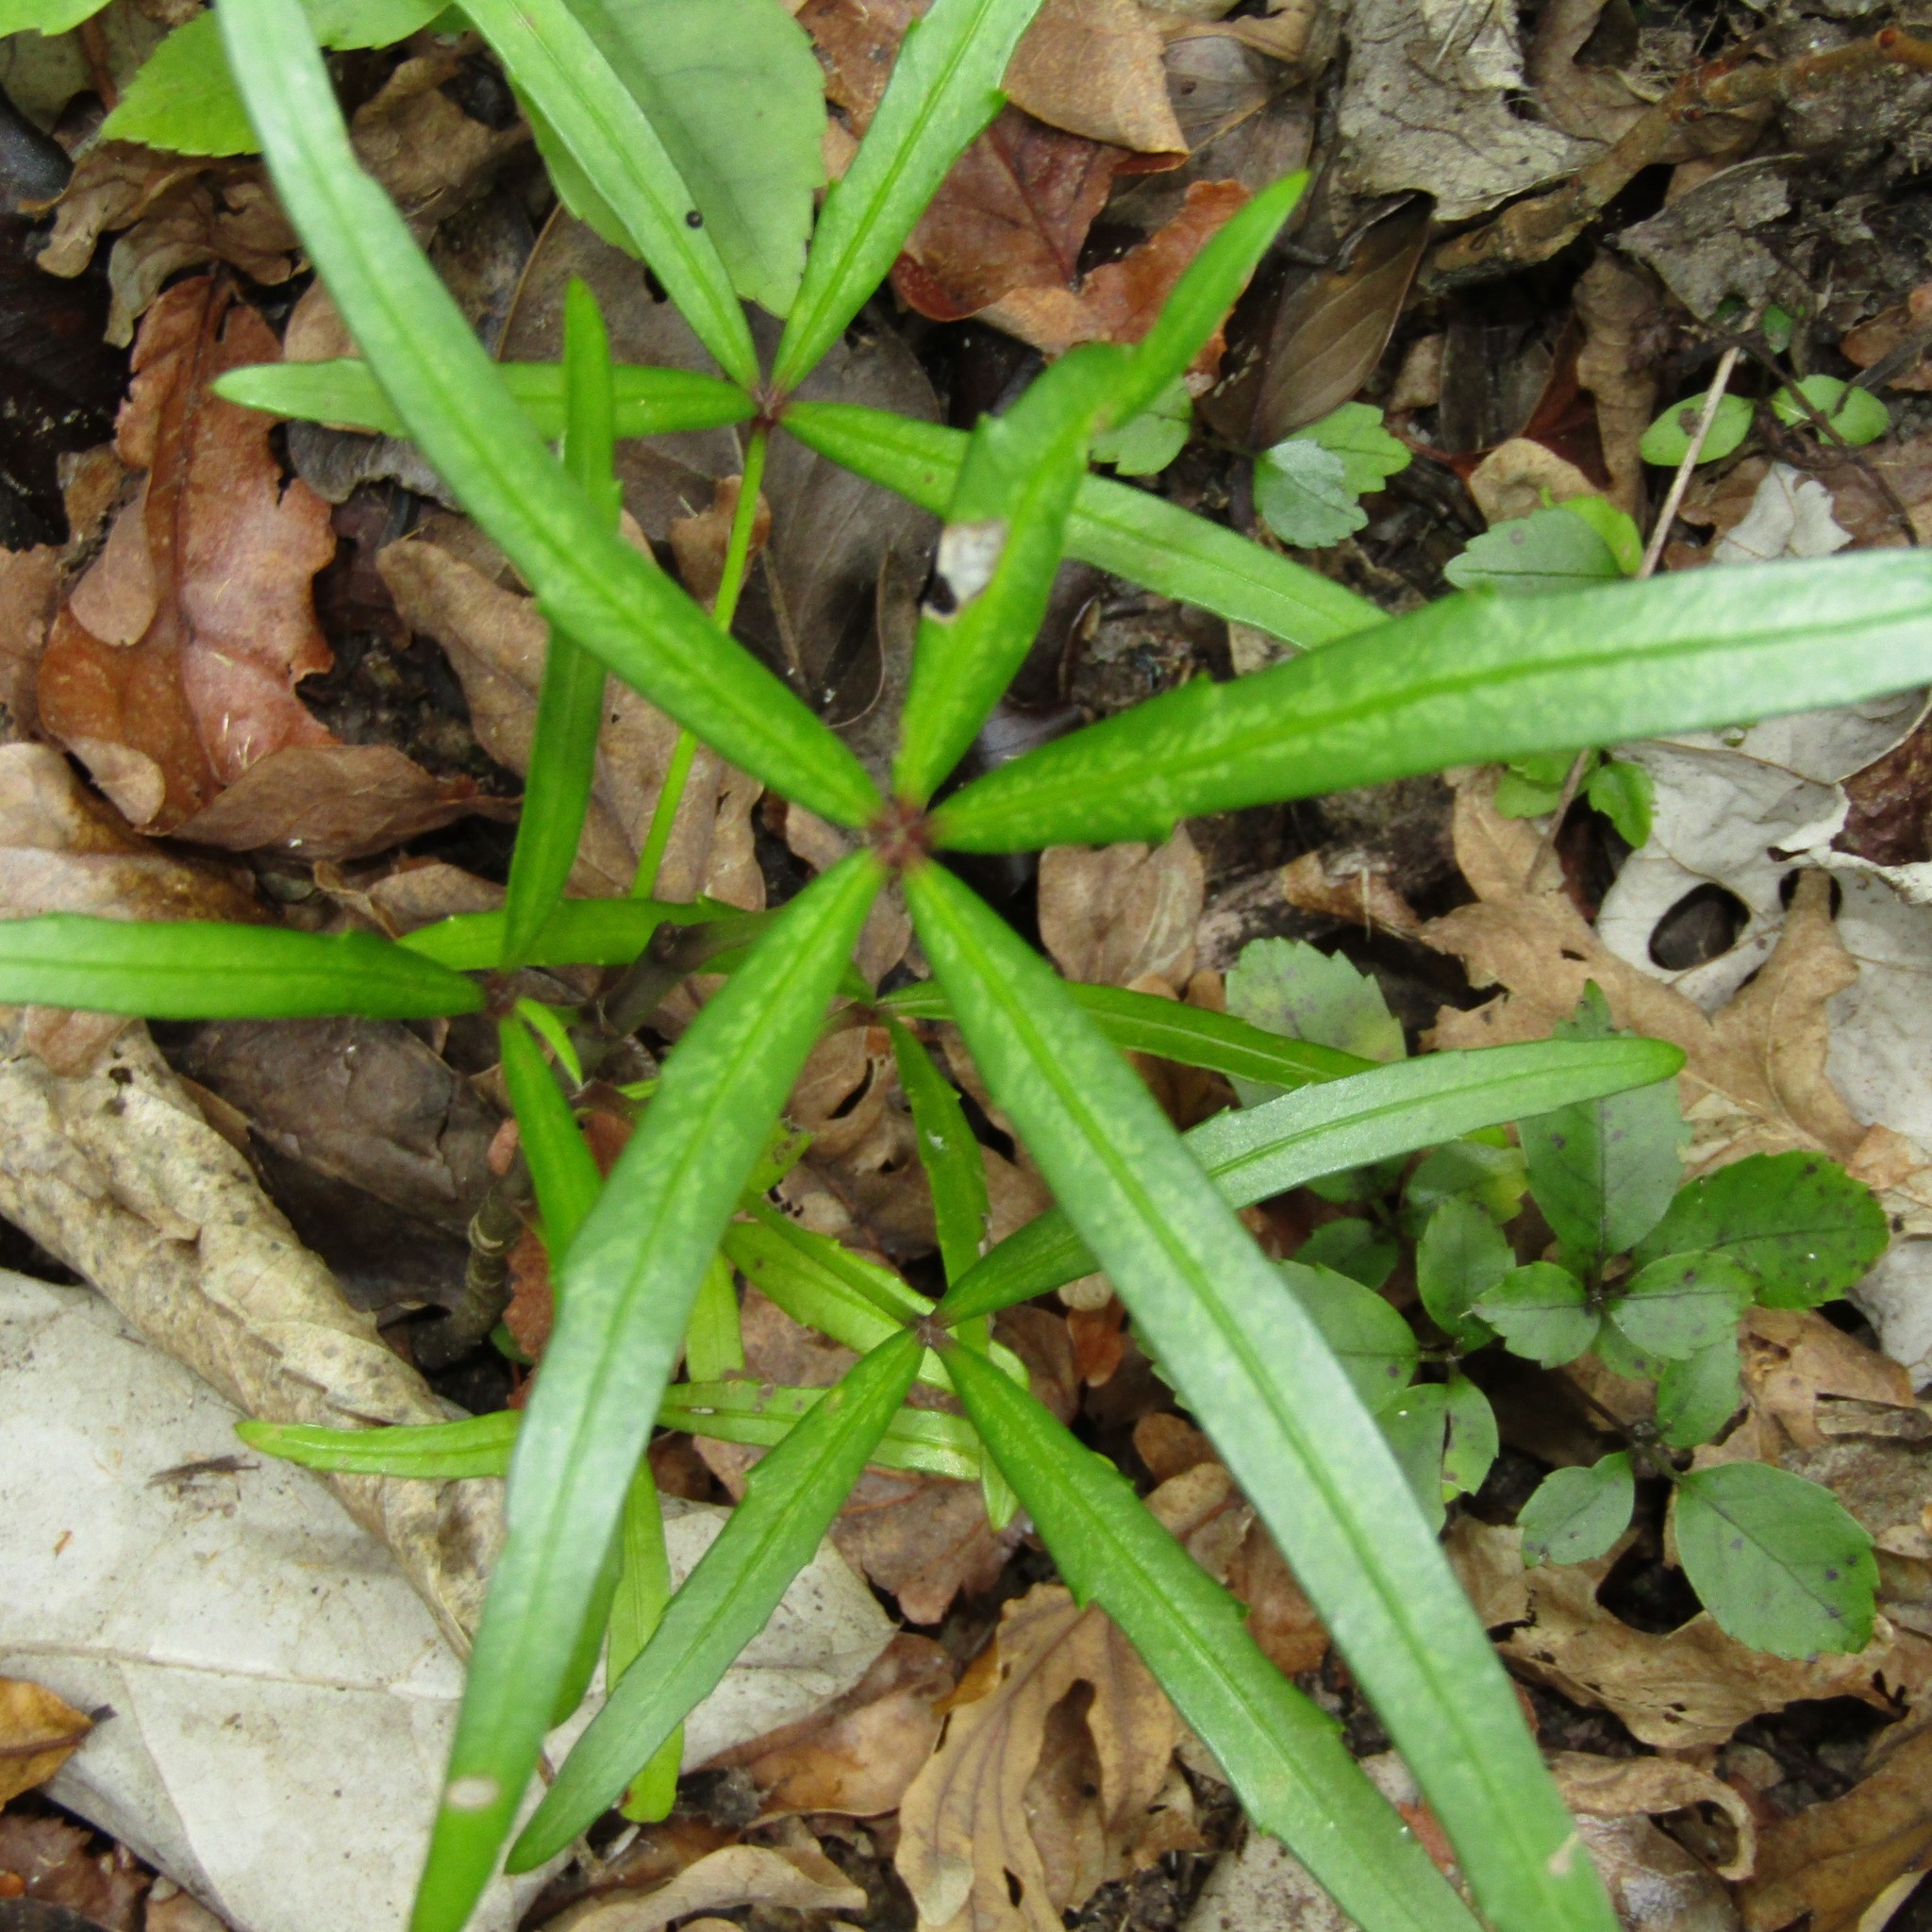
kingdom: Plantae
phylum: Tracheophyta
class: Magnoliopsida
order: Apiales
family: Araliaceae
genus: Pseudopanax
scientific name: Pseudopanax
